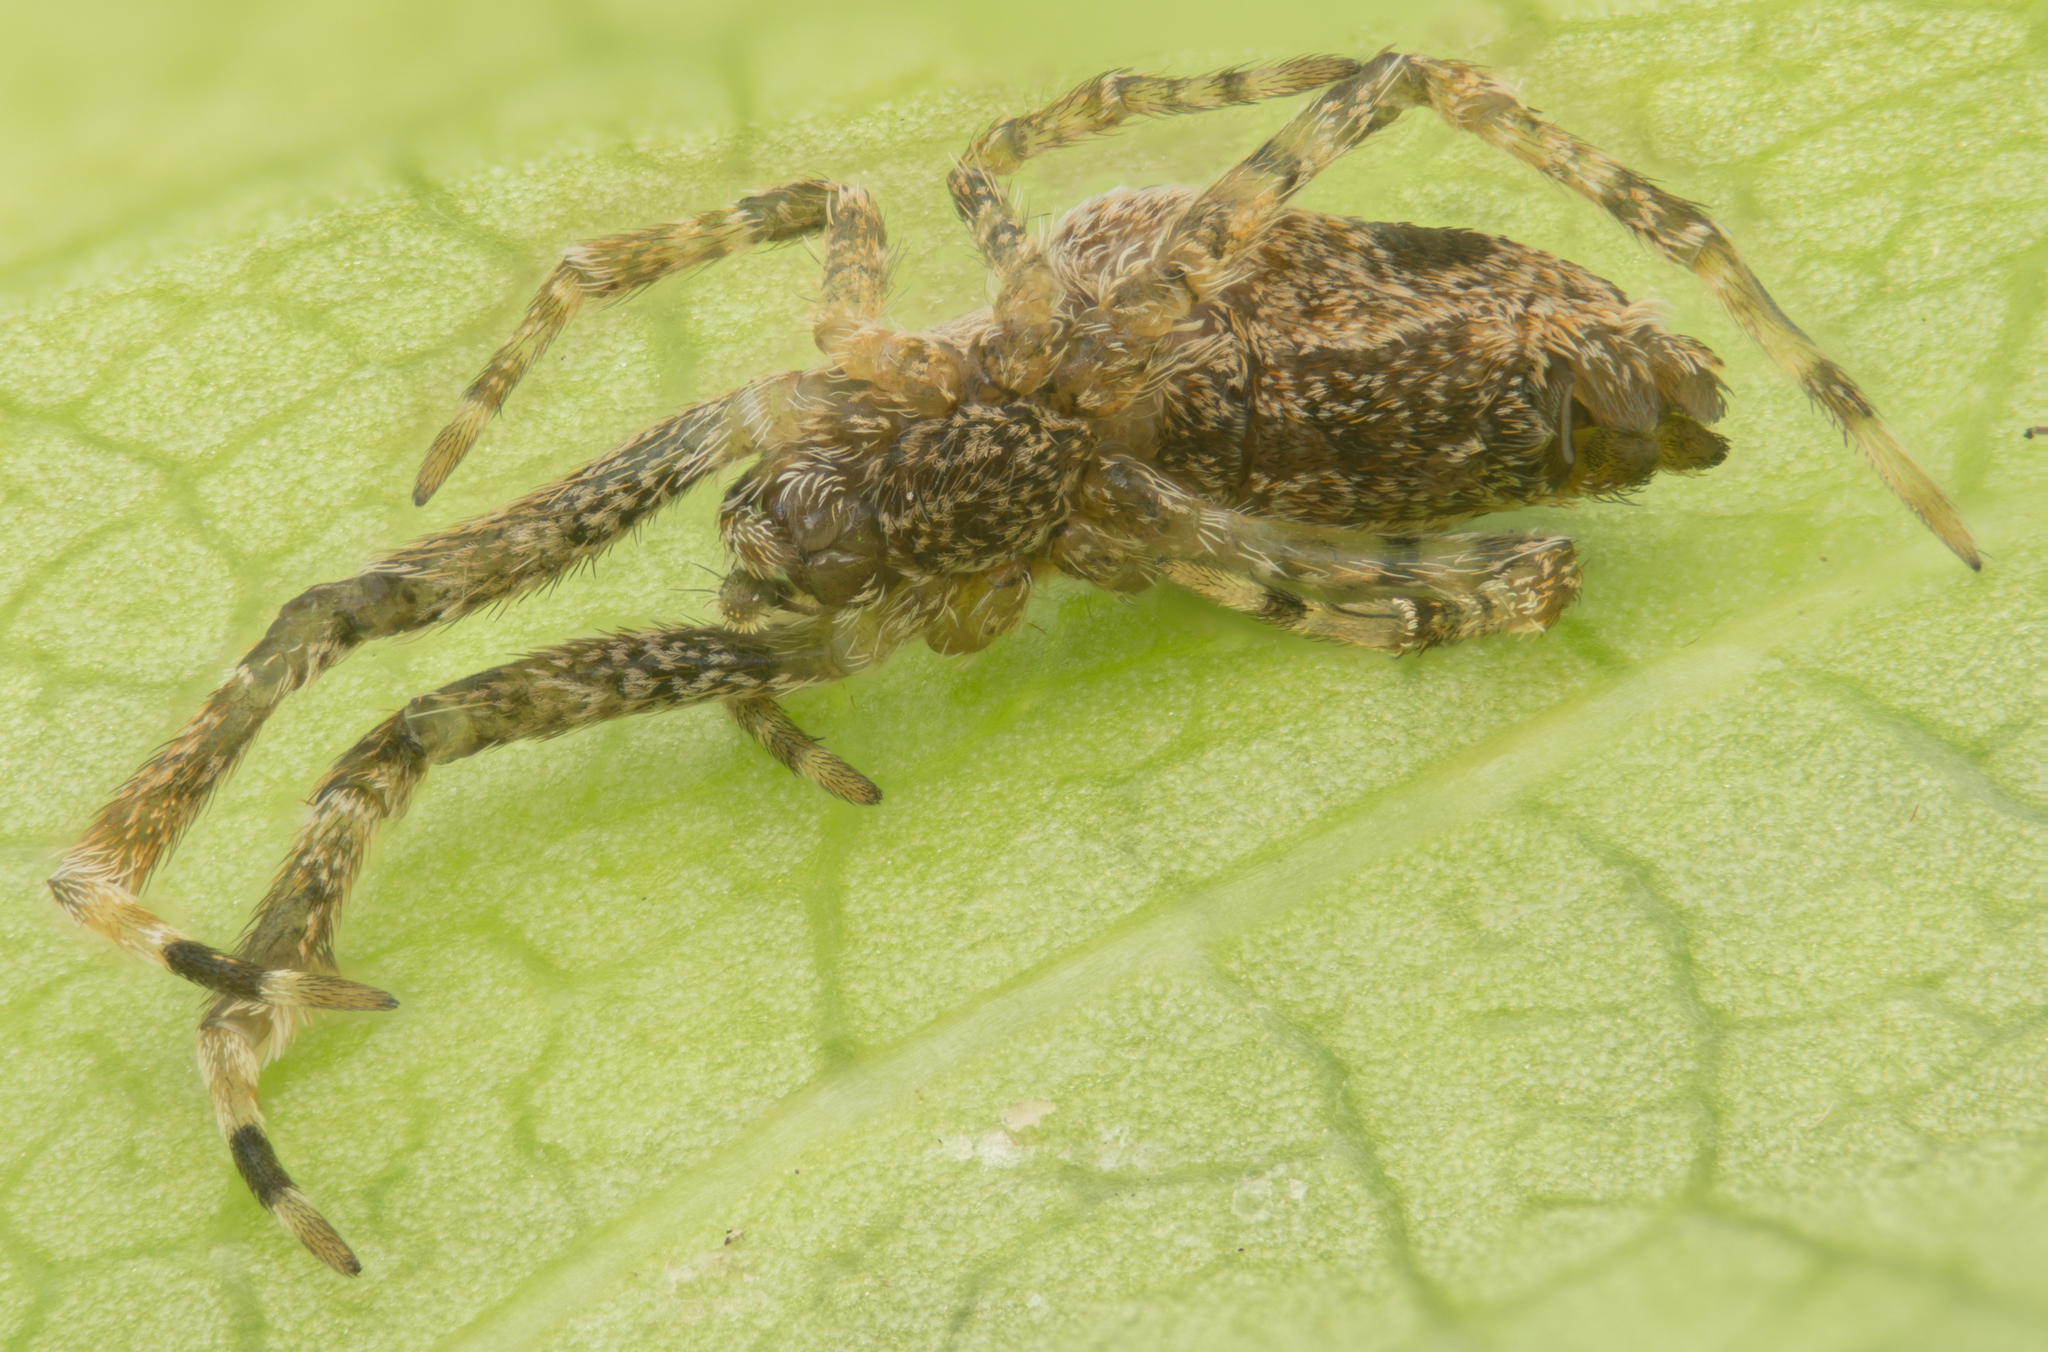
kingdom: Animalia
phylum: Arthropoda
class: Arachnida
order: Araneae
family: Uloboridae
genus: Uloborus
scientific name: Uloborus diversus
